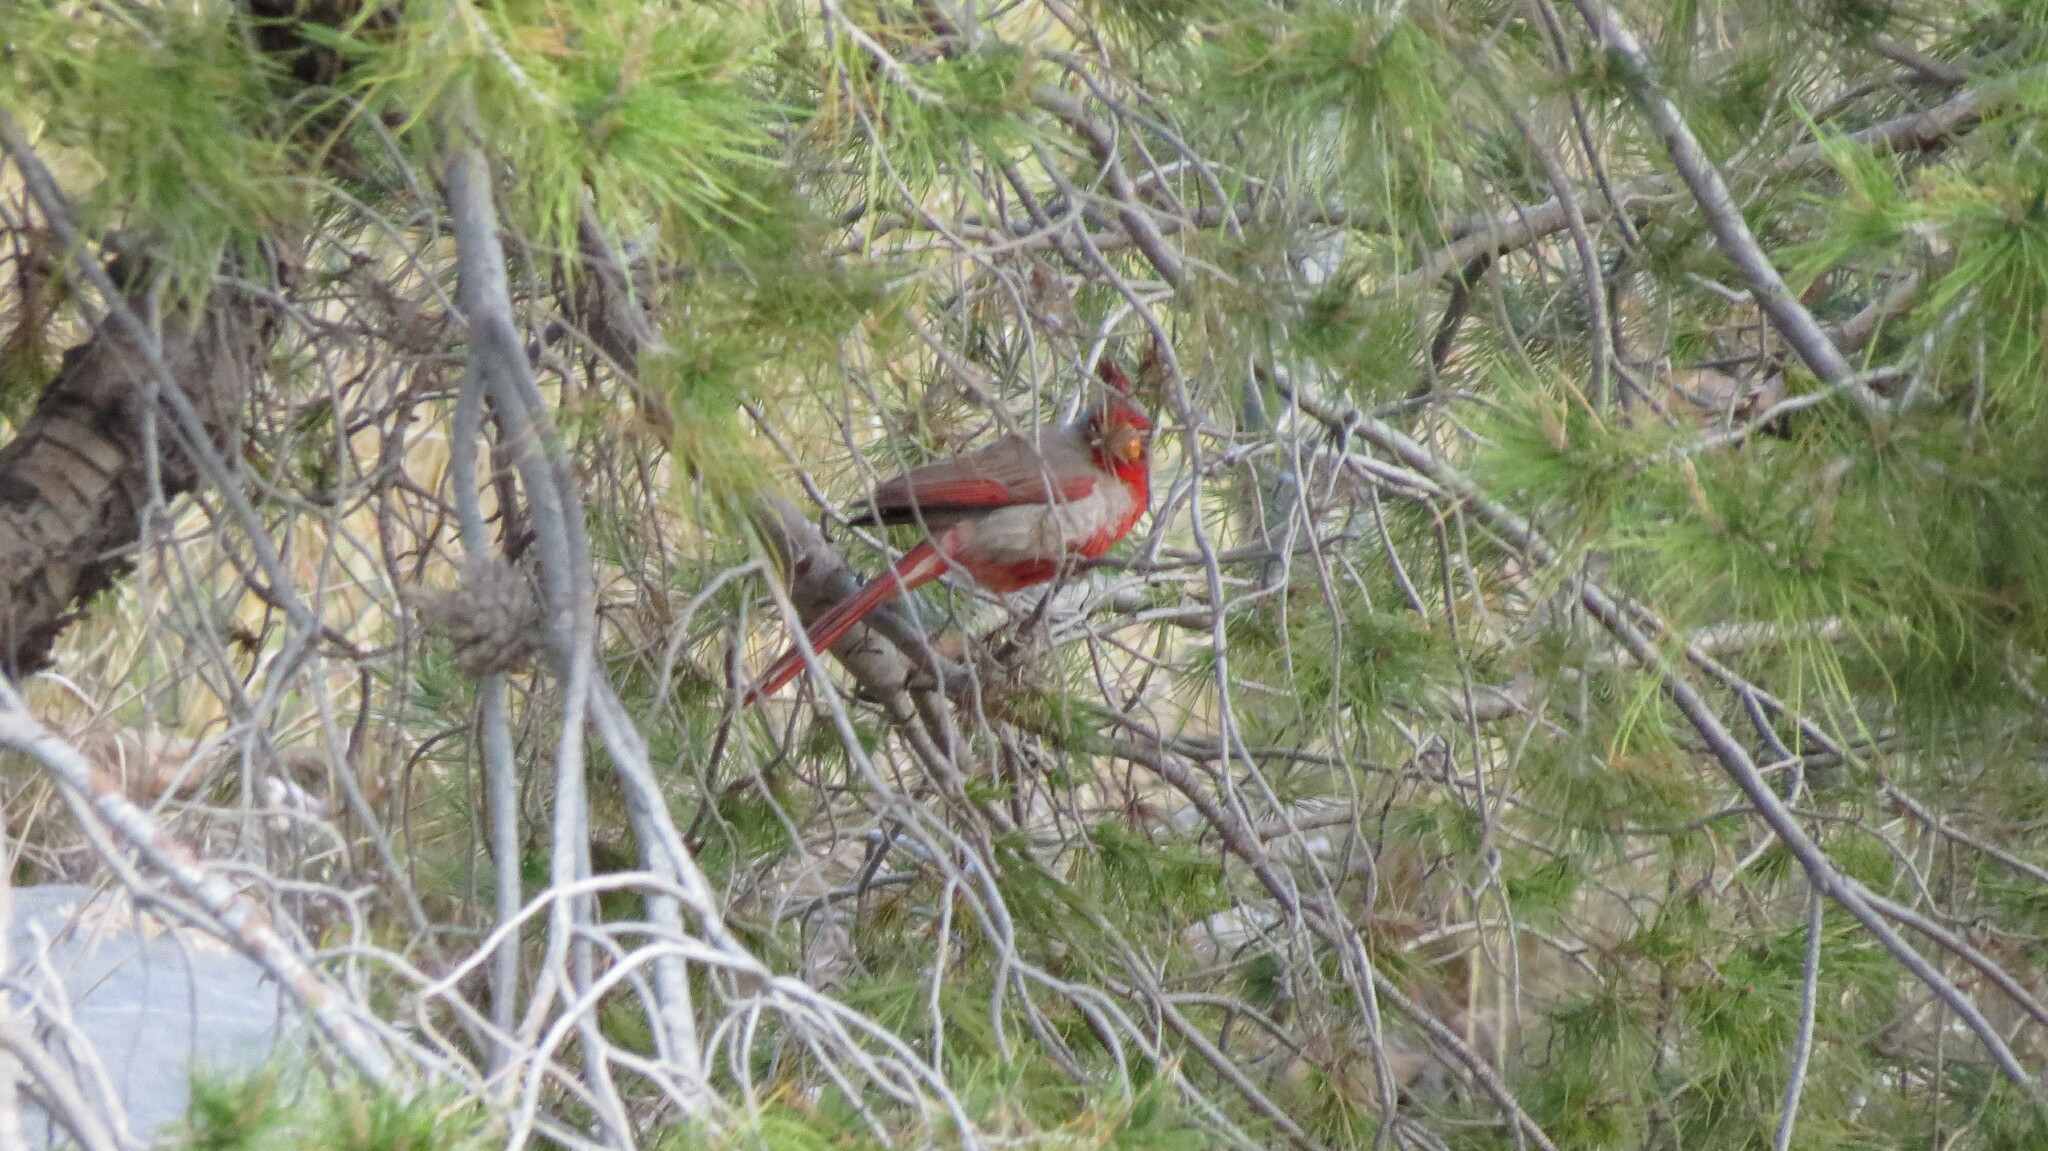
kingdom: Animalia
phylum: Chordata
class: Aves
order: Passeriformes
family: Cardinalidae
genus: Cardinalis
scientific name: Cardinalis sinuatus
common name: Pyrrhuloxia
